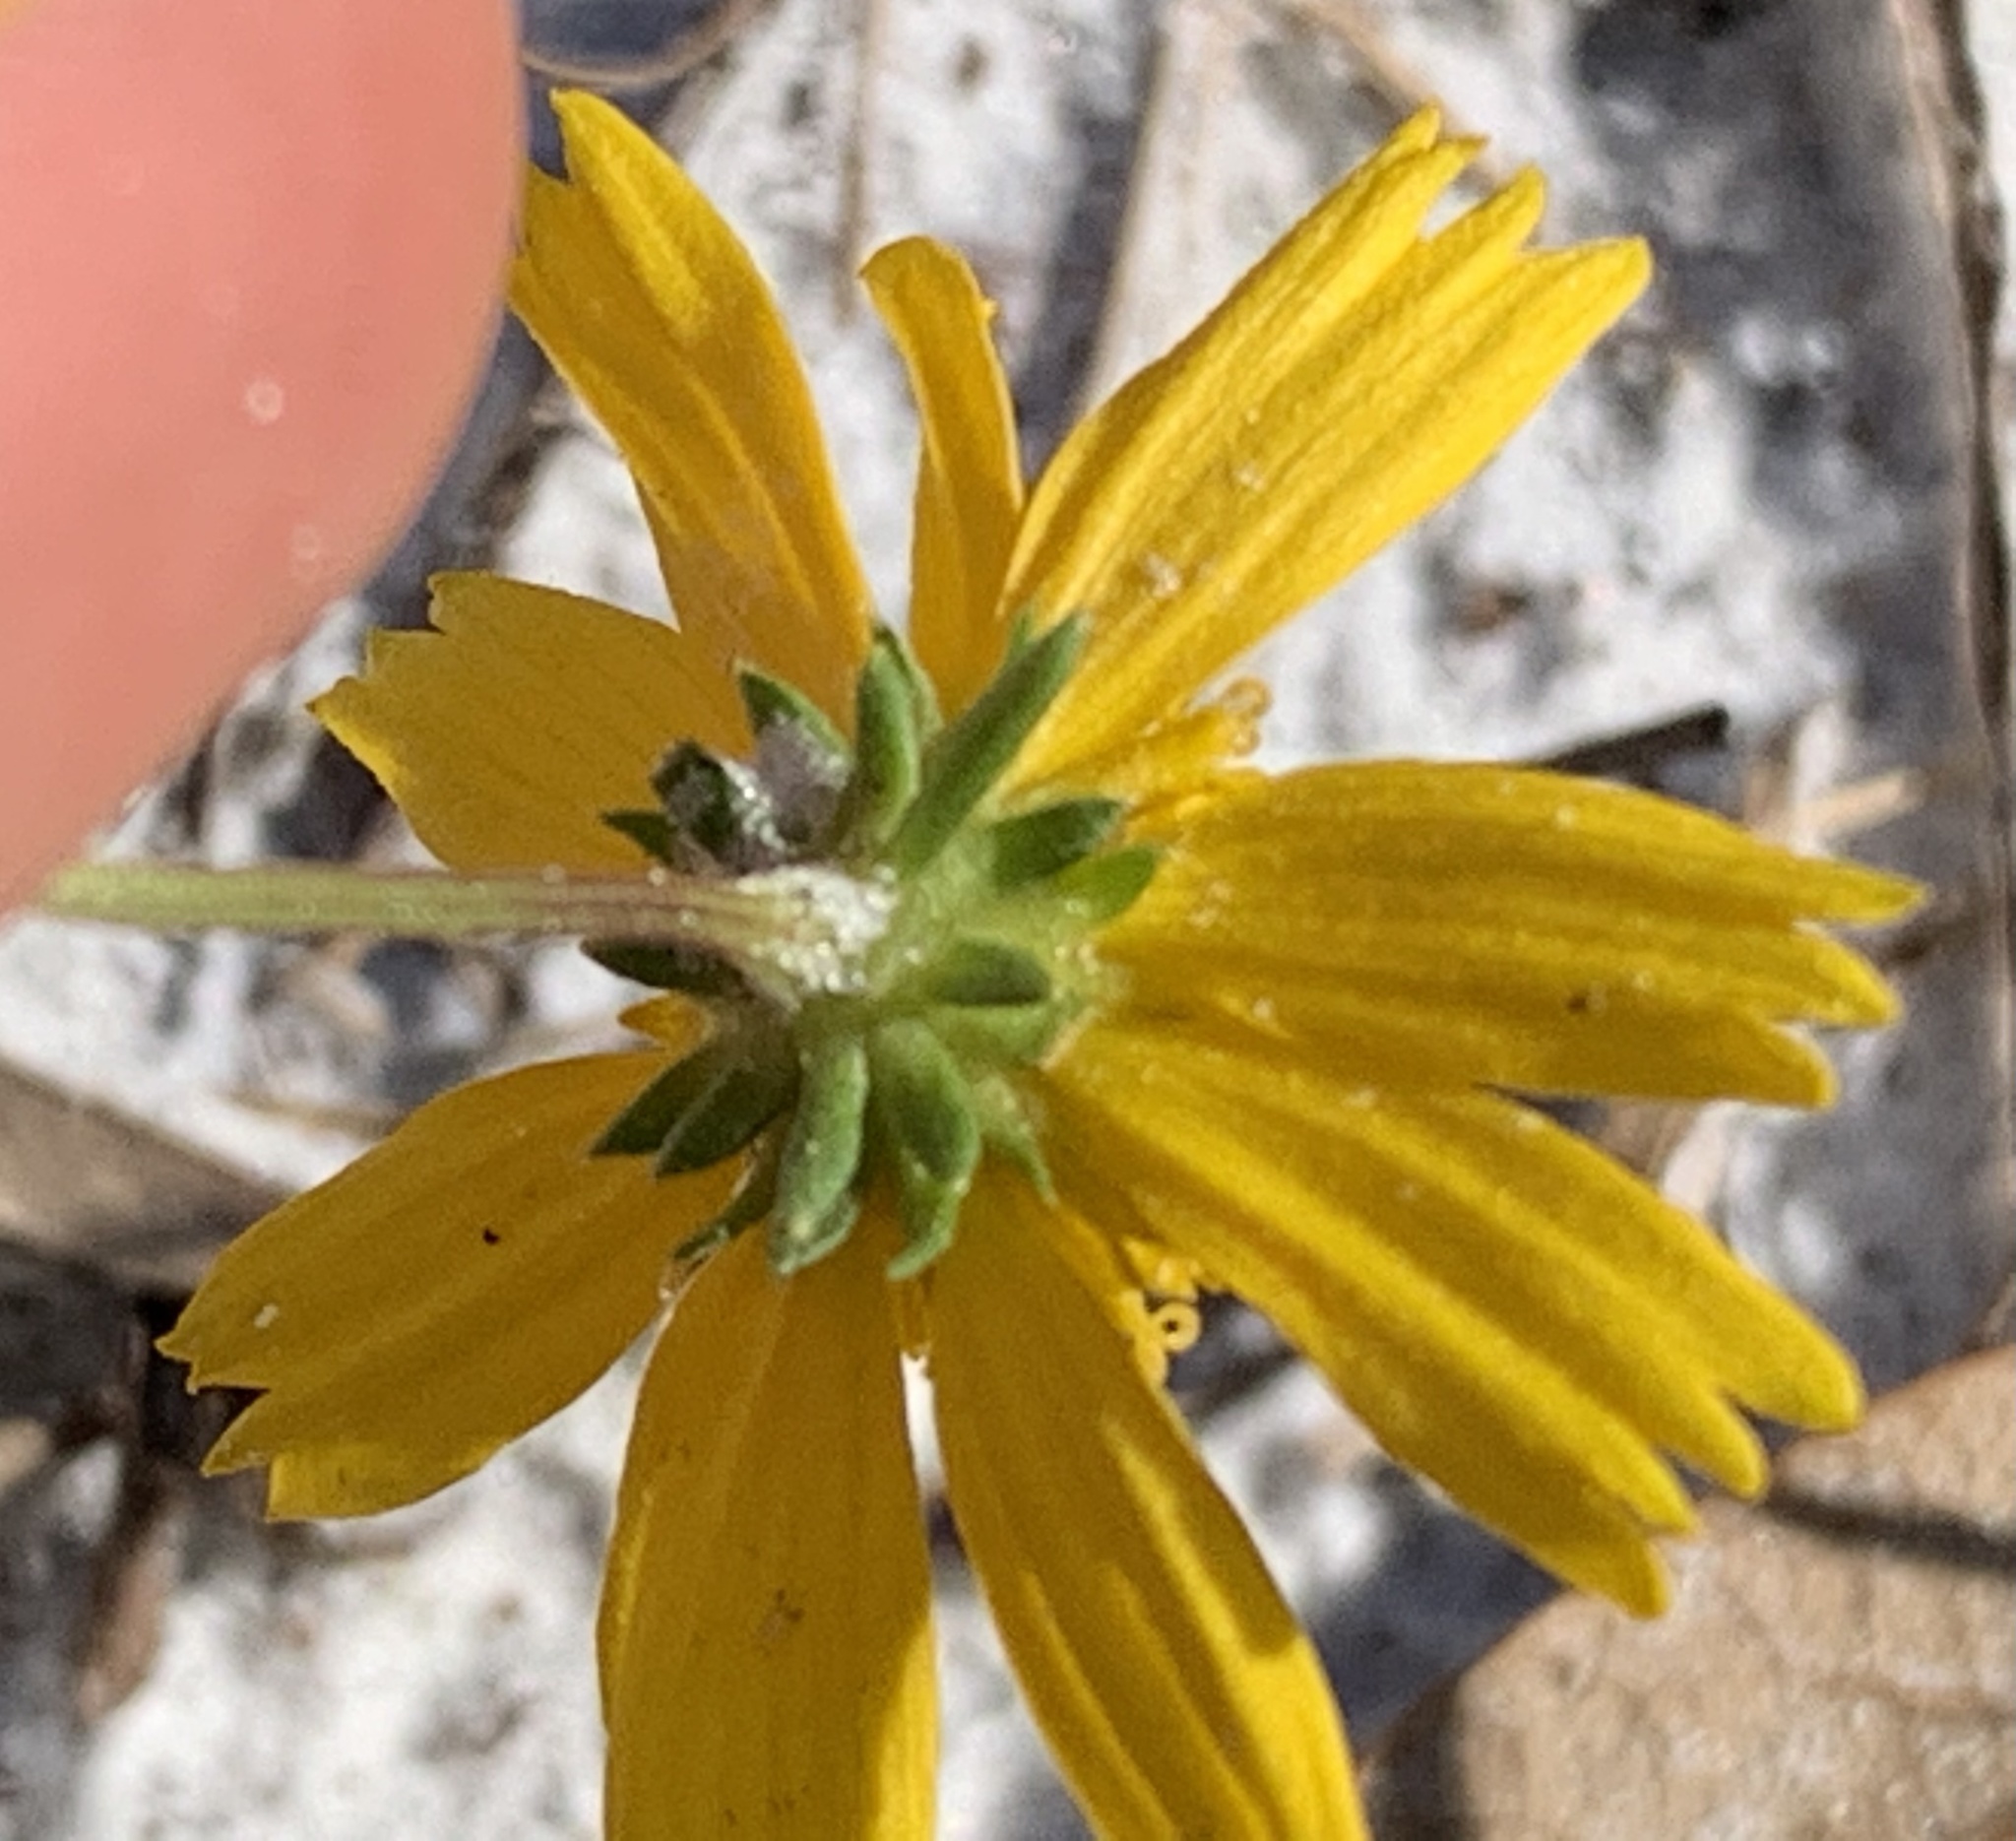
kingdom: Plantae
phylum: Tracheophyta
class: Magnoliopsida
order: Asterales
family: Asteraceae
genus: Balduina
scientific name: Balduina angustifolia
